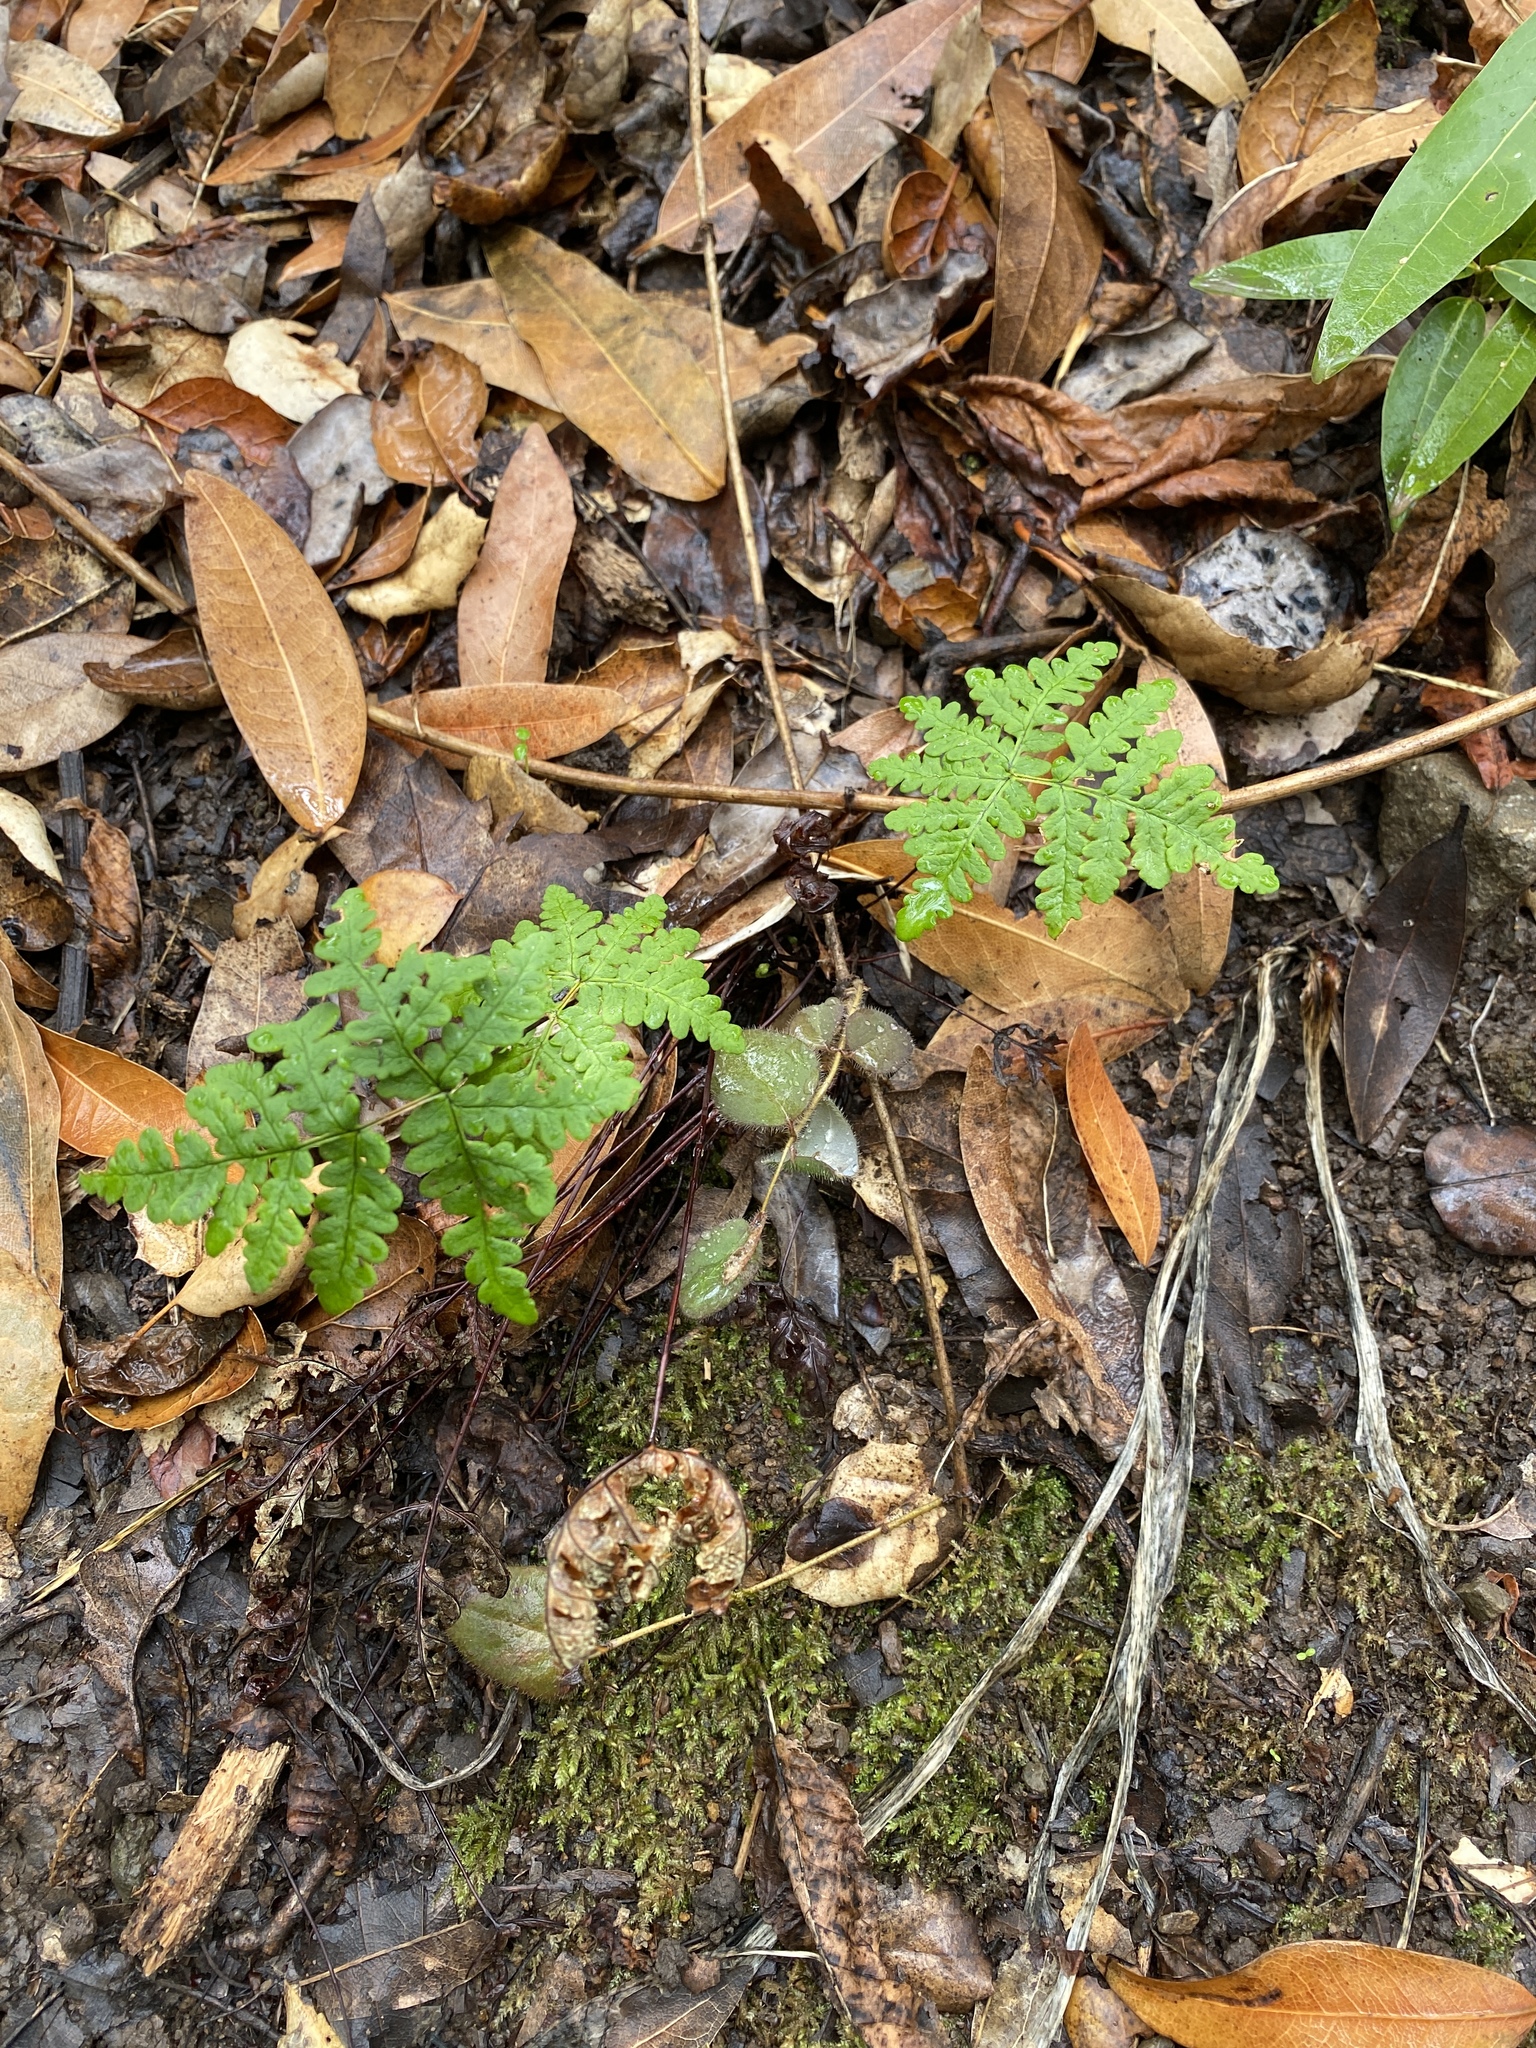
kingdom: Plantae
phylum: Tracheophyta
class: Polypodiopsida
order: Polypodiales
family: Pteridaceae
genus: Pentagramma
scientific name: Pentagramma triangularis
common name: Gold fern
